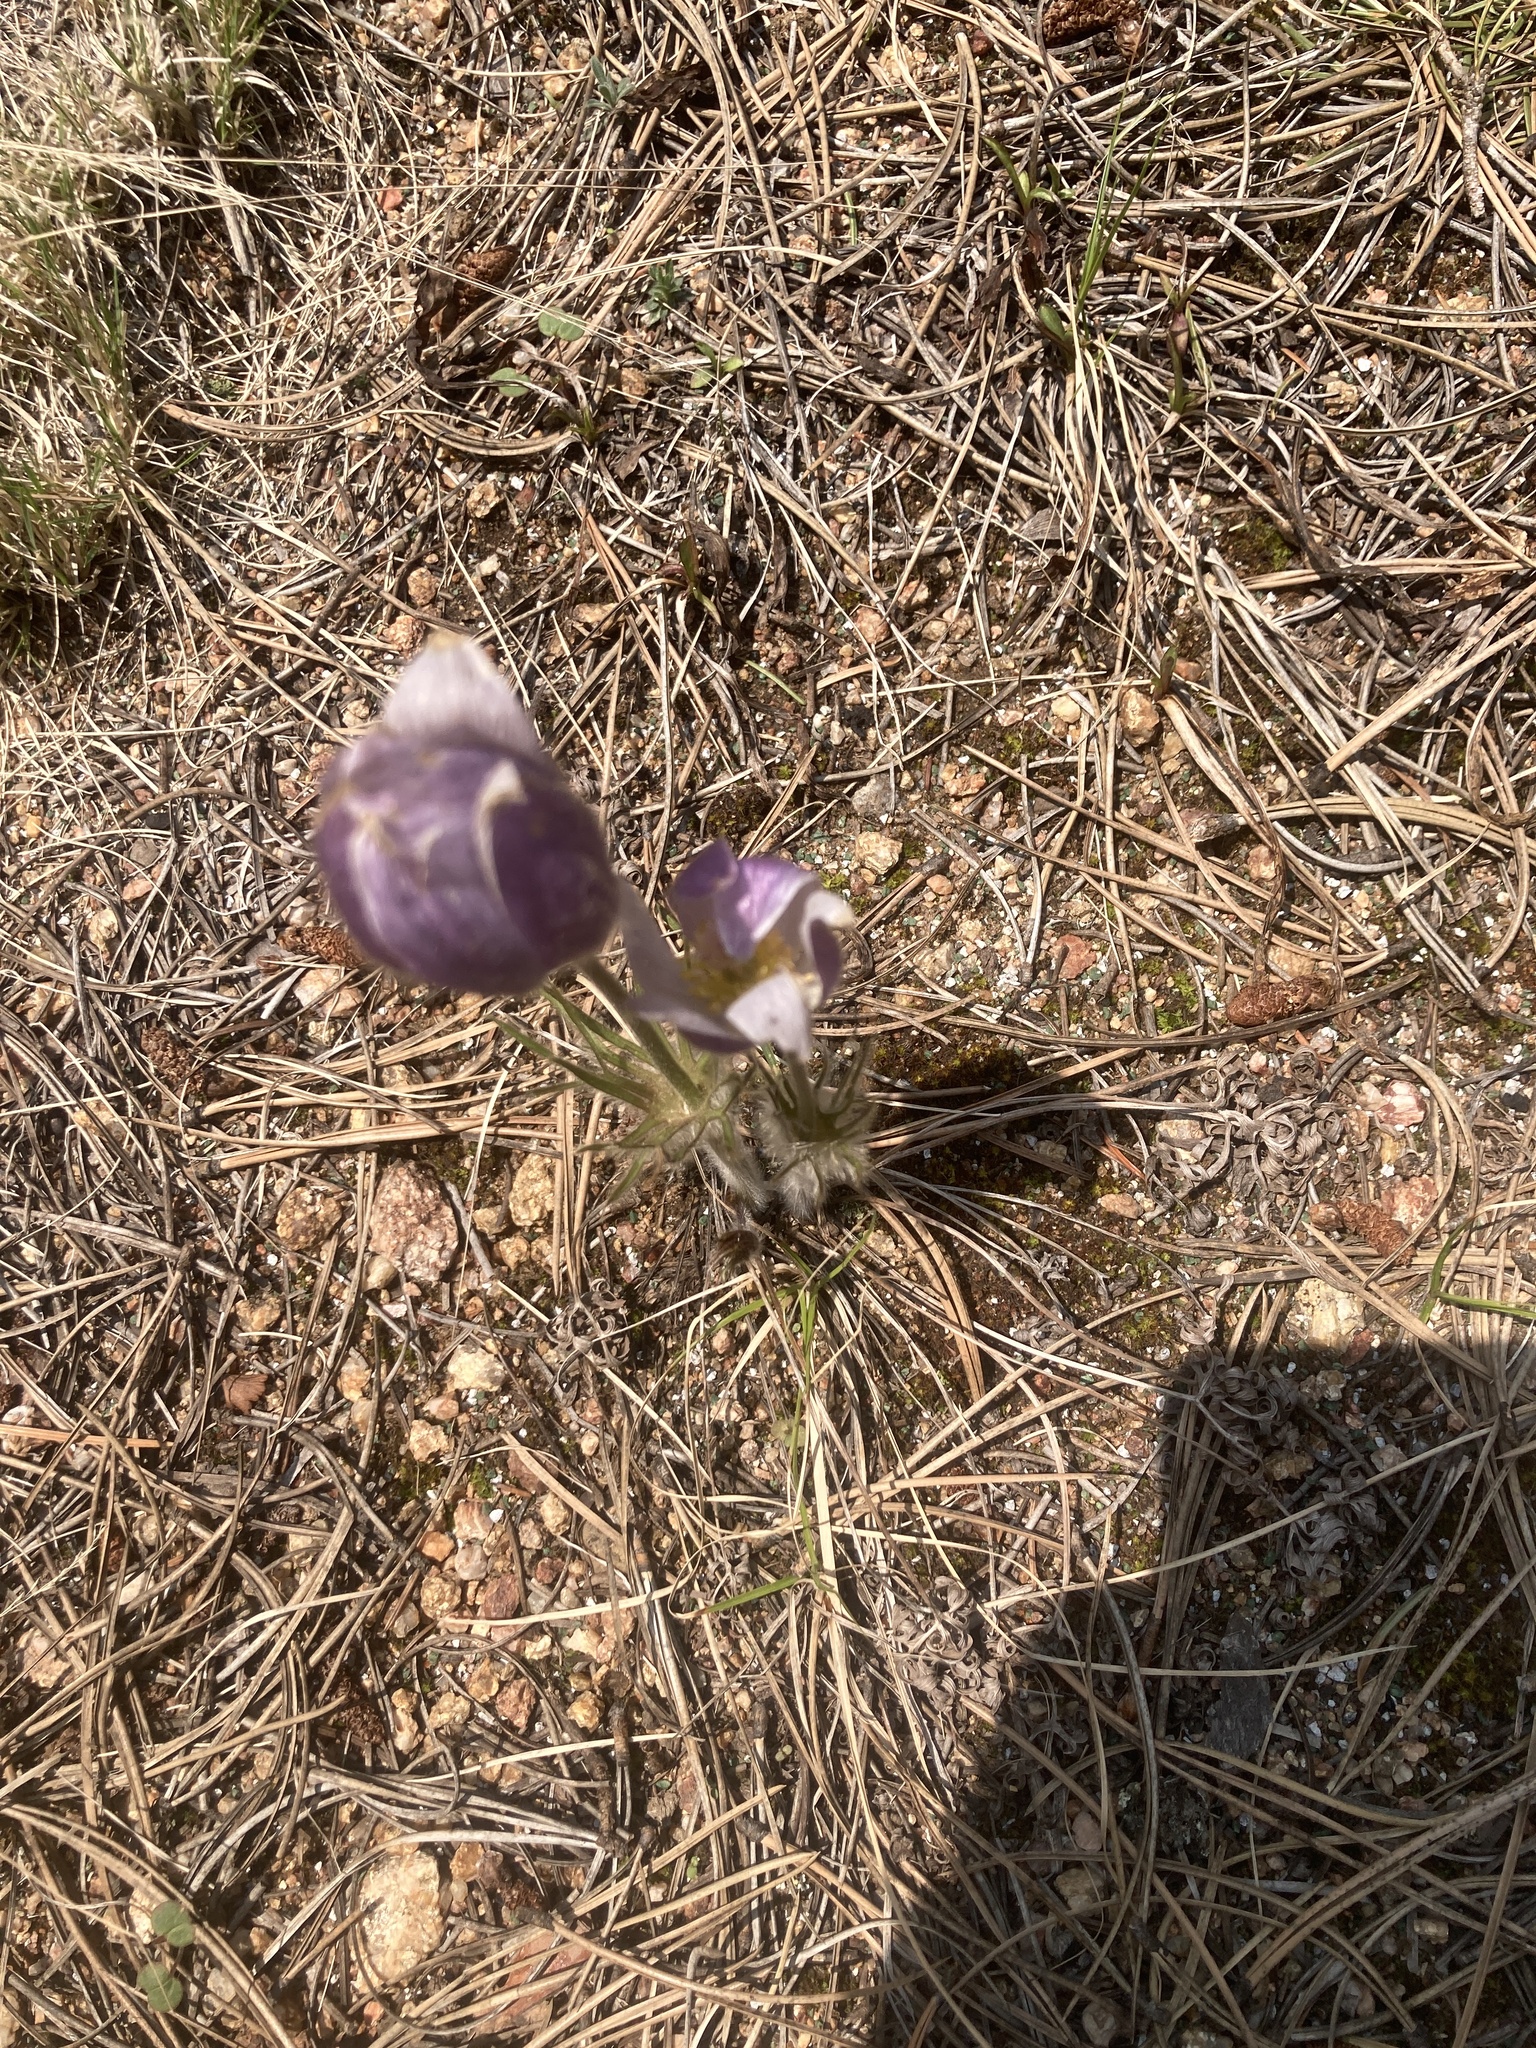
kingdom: Plantae
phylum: Tracheophyta
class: Magnoliopsida
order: Ranunculales
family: Ranunculaceae
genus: Pulsatilla
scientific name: Pulsatilla nuttalliana
